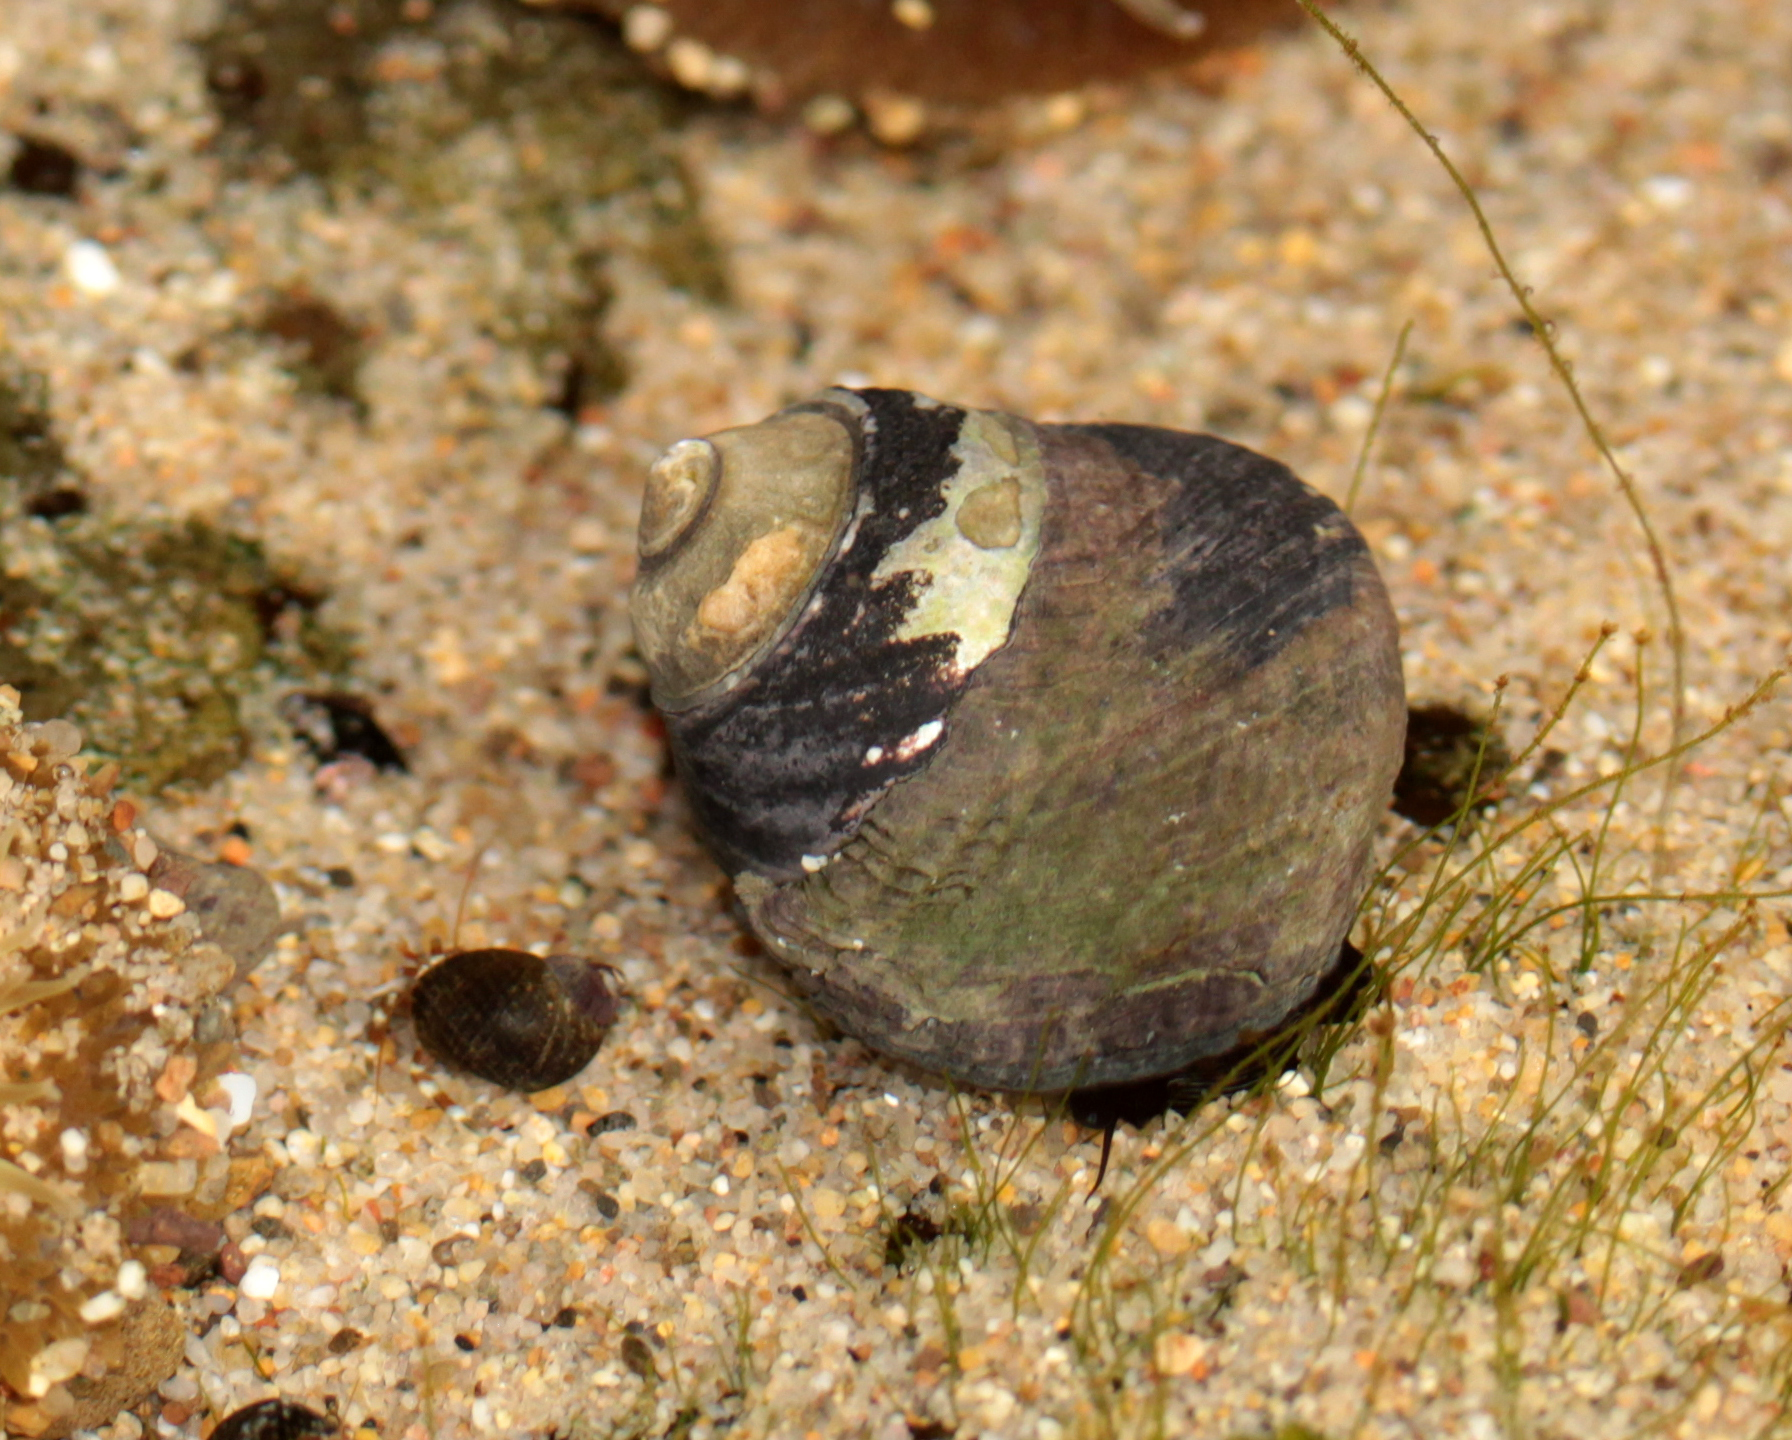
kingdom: Animalia
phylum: Mollusca
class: Gastropoda
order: Trochida
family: Tegulidae
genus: Tegula
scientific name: Tegula funebralis
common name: Black tegula
